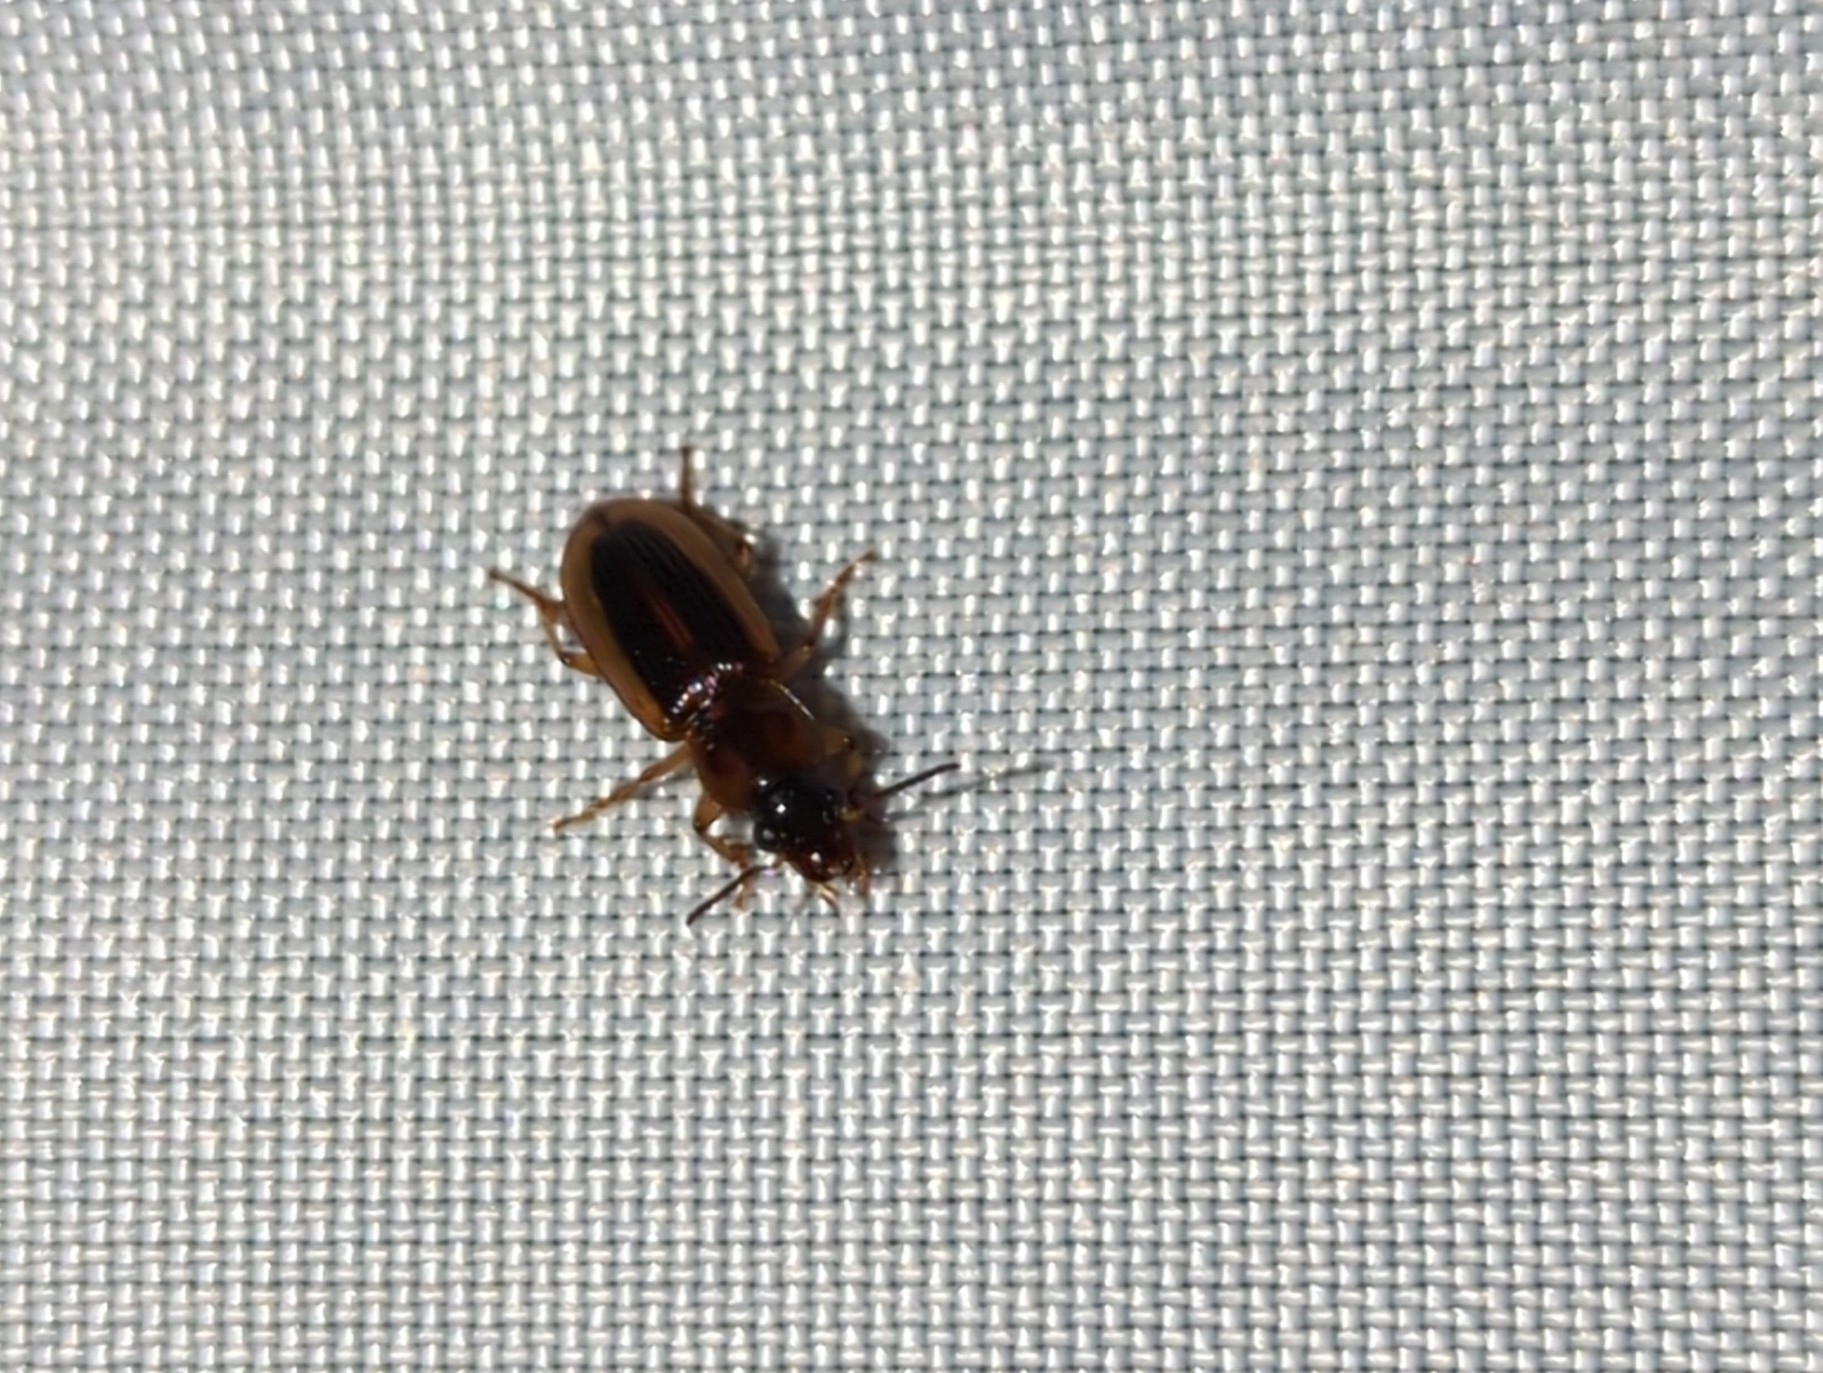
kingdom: Animalia
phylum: Arthropoda
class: Insecta
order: Coleoptera
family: Carabidae
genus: Stenolophus
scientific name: Stenolophus lecontei
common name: Leconte's seedcorn beetle
